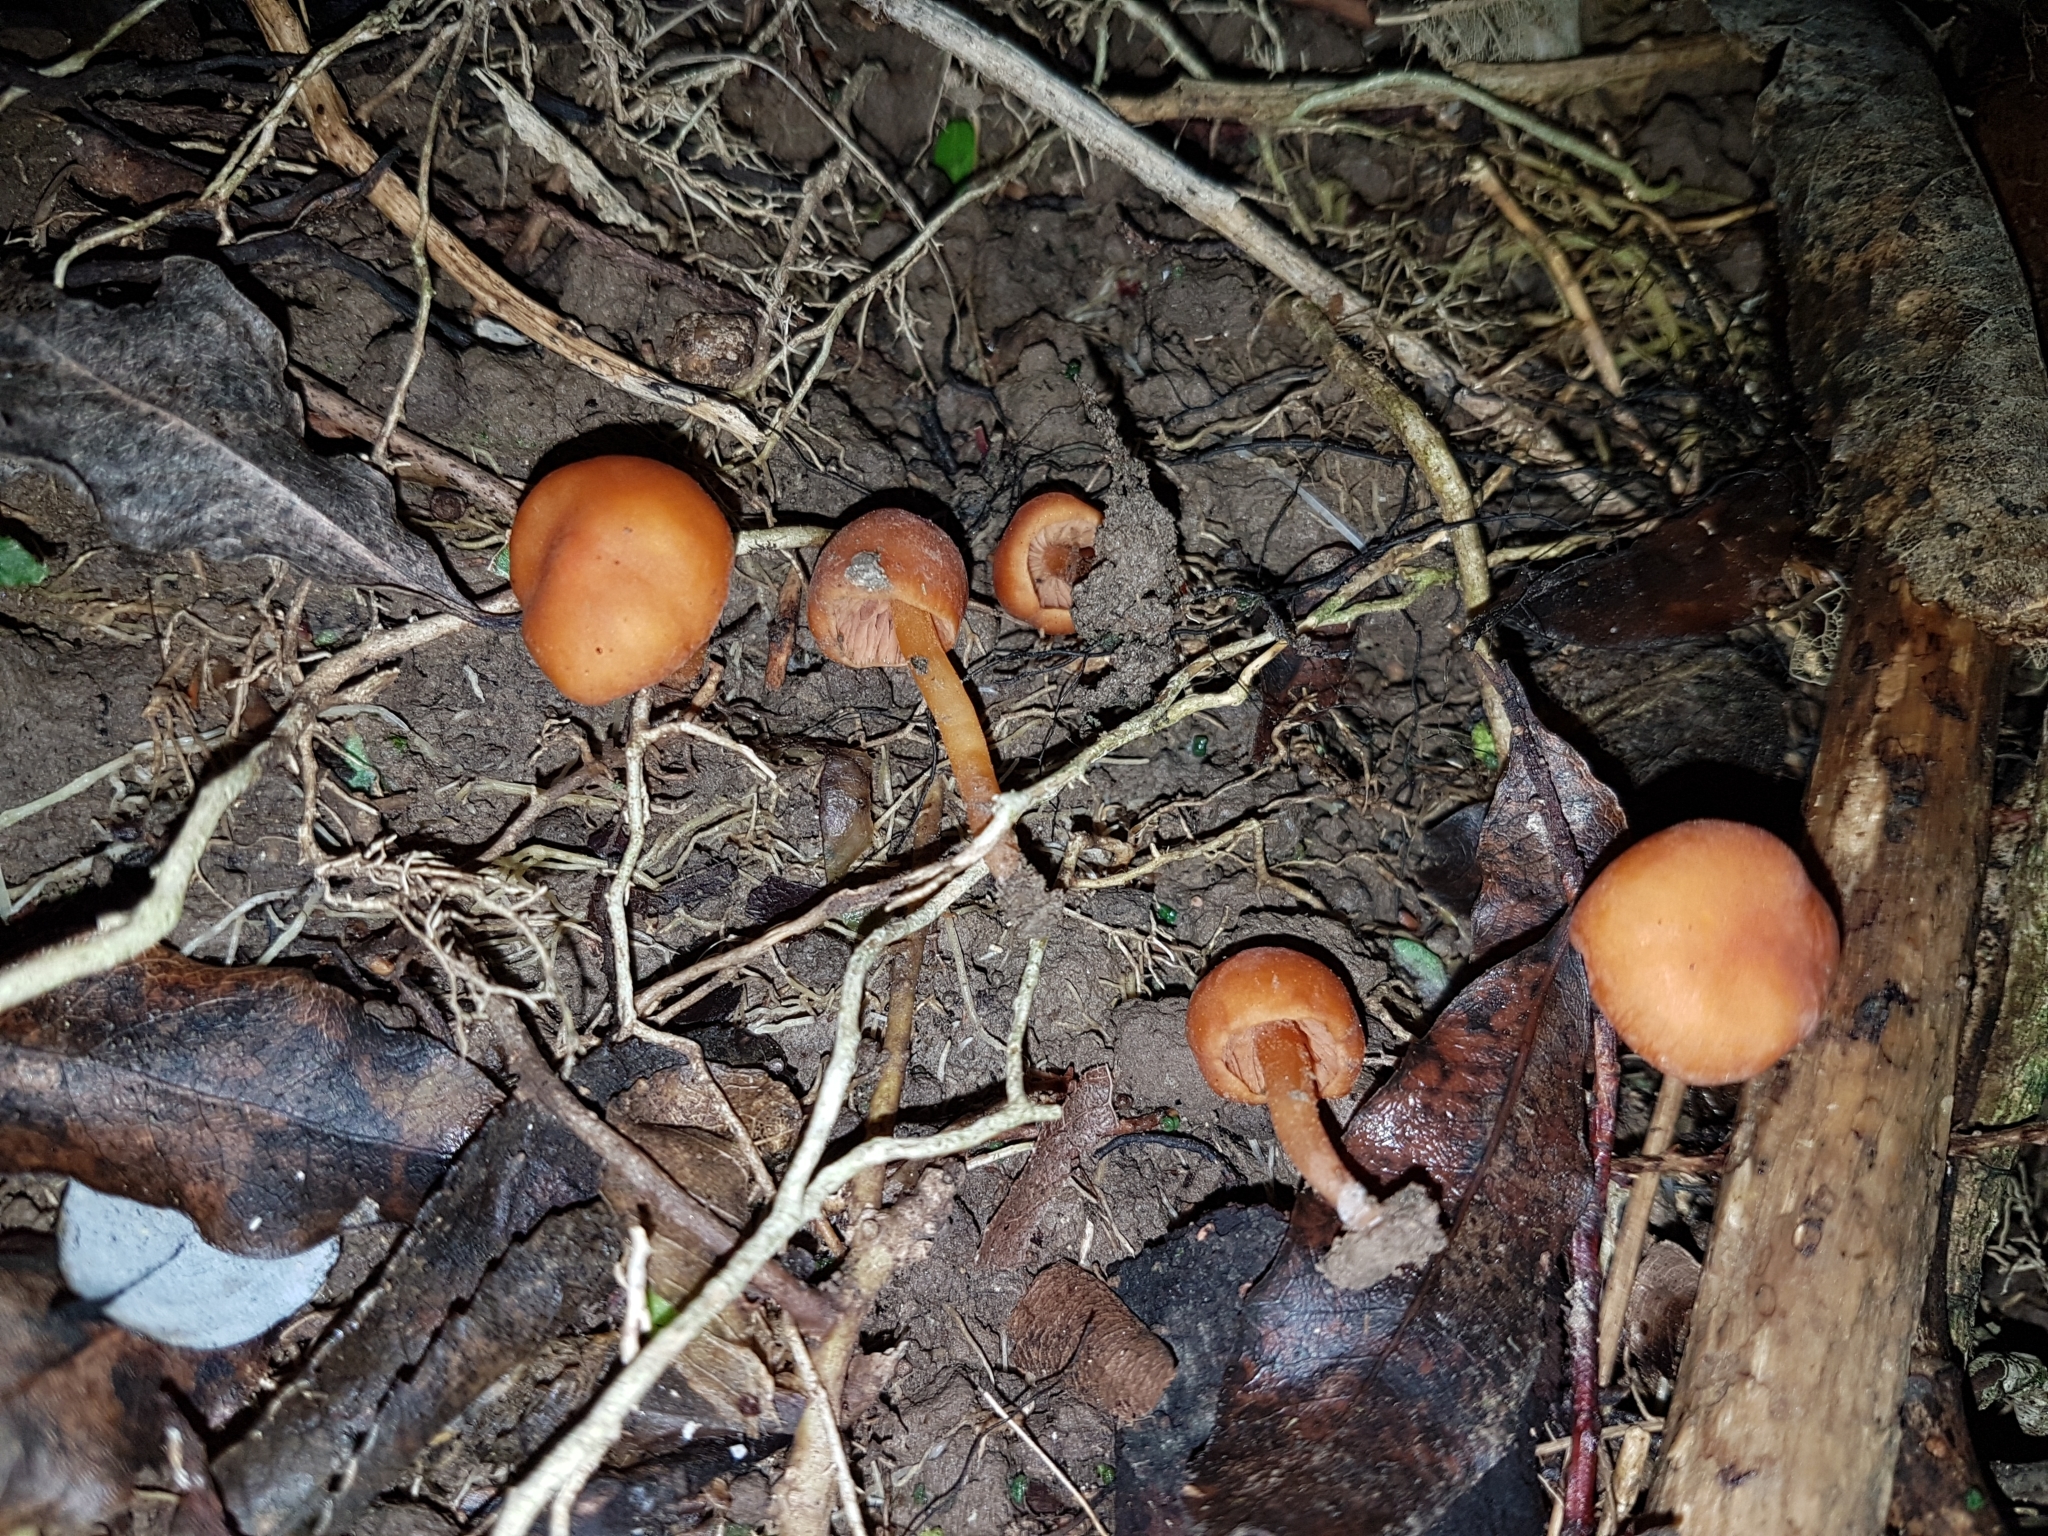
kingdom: Fungi
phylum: Basidiomycota
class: Agaricomycetes
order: Agaricales
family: Macrocystidiaceae
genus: Macrocystidia
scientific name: Macrocystidia reducta
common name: The fishy pouch
